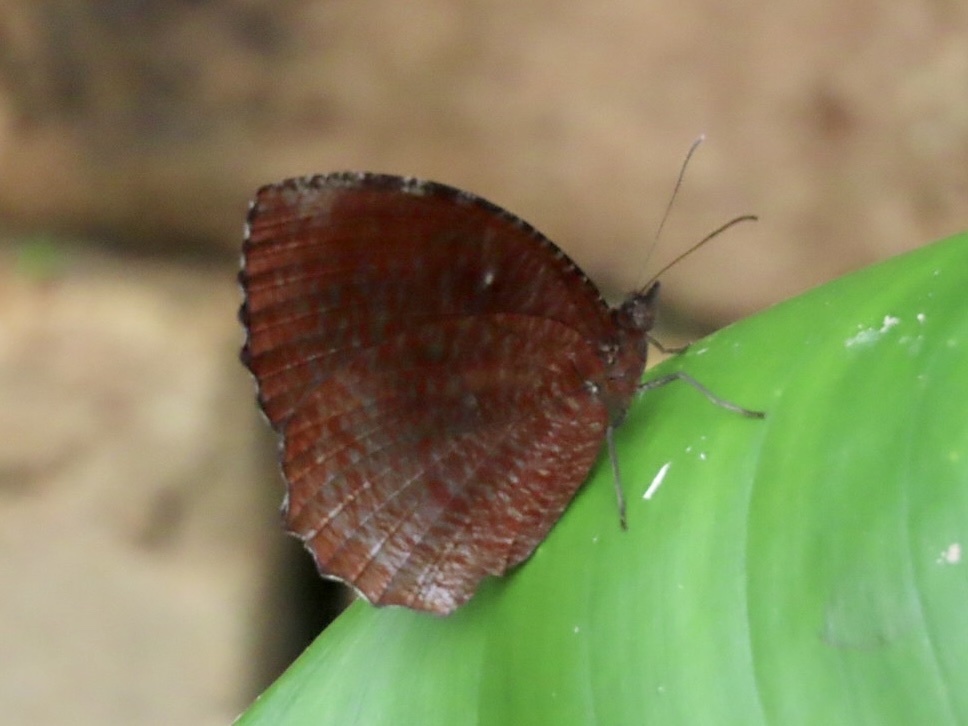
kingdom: Animalia
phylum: Arthropoda
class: Insecta
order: Lepidoptera
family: Nymphalidae
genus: Elymnias
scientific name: Elymnias hypermnestra
